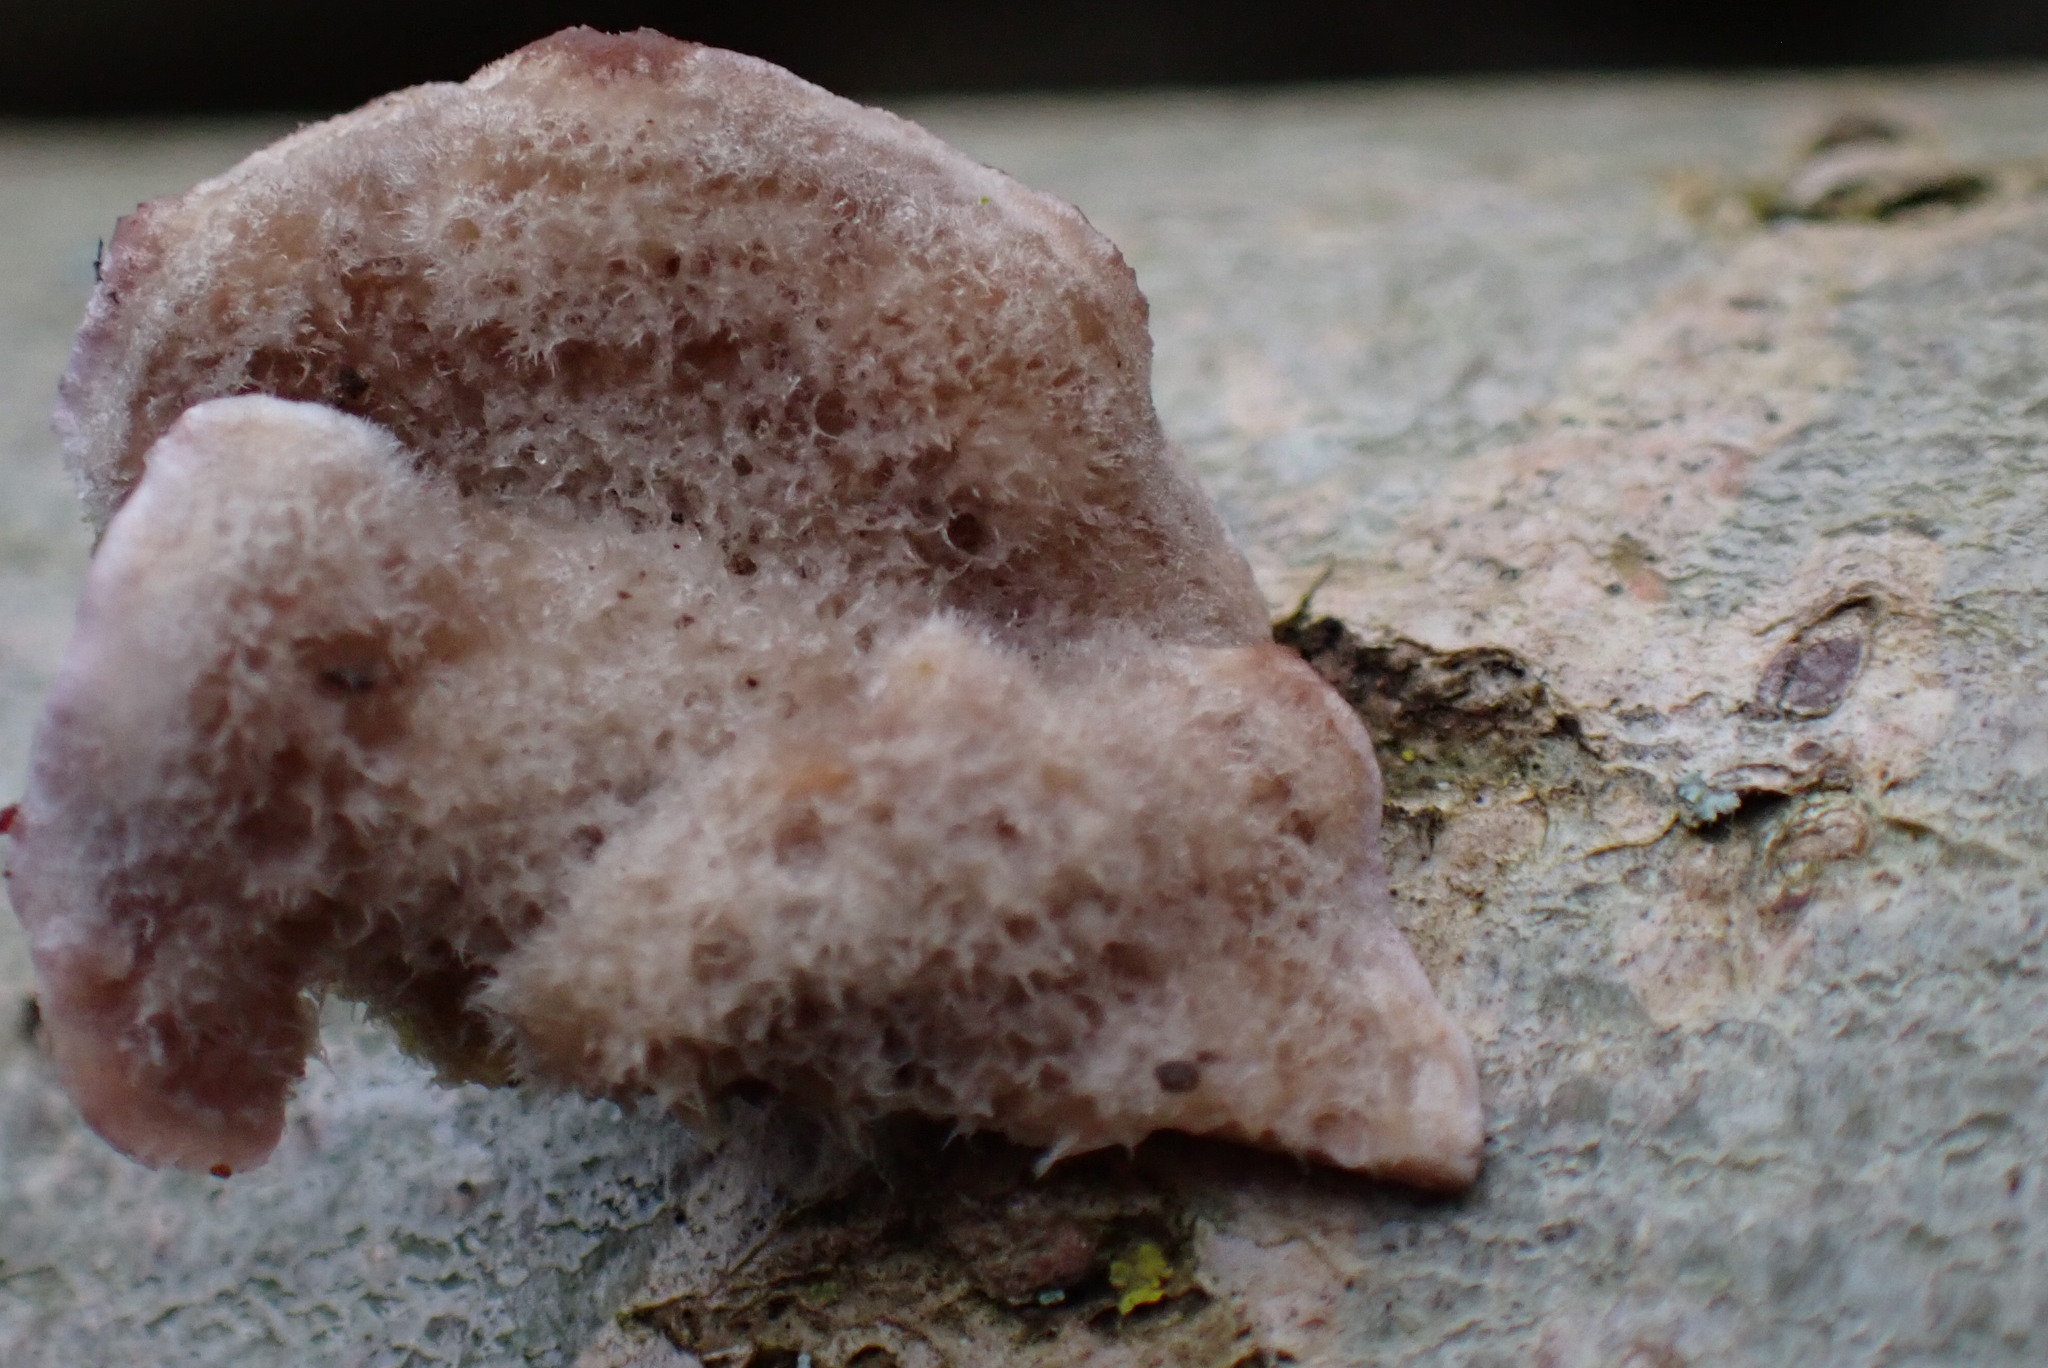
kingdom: Fungi
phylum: Basidiomycota
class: Agaricomycetes
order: Agaricales
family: Cyphellaceae
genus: Chondrostereum
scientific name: Chondrostereum purpureum
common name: Silver leaf disease
